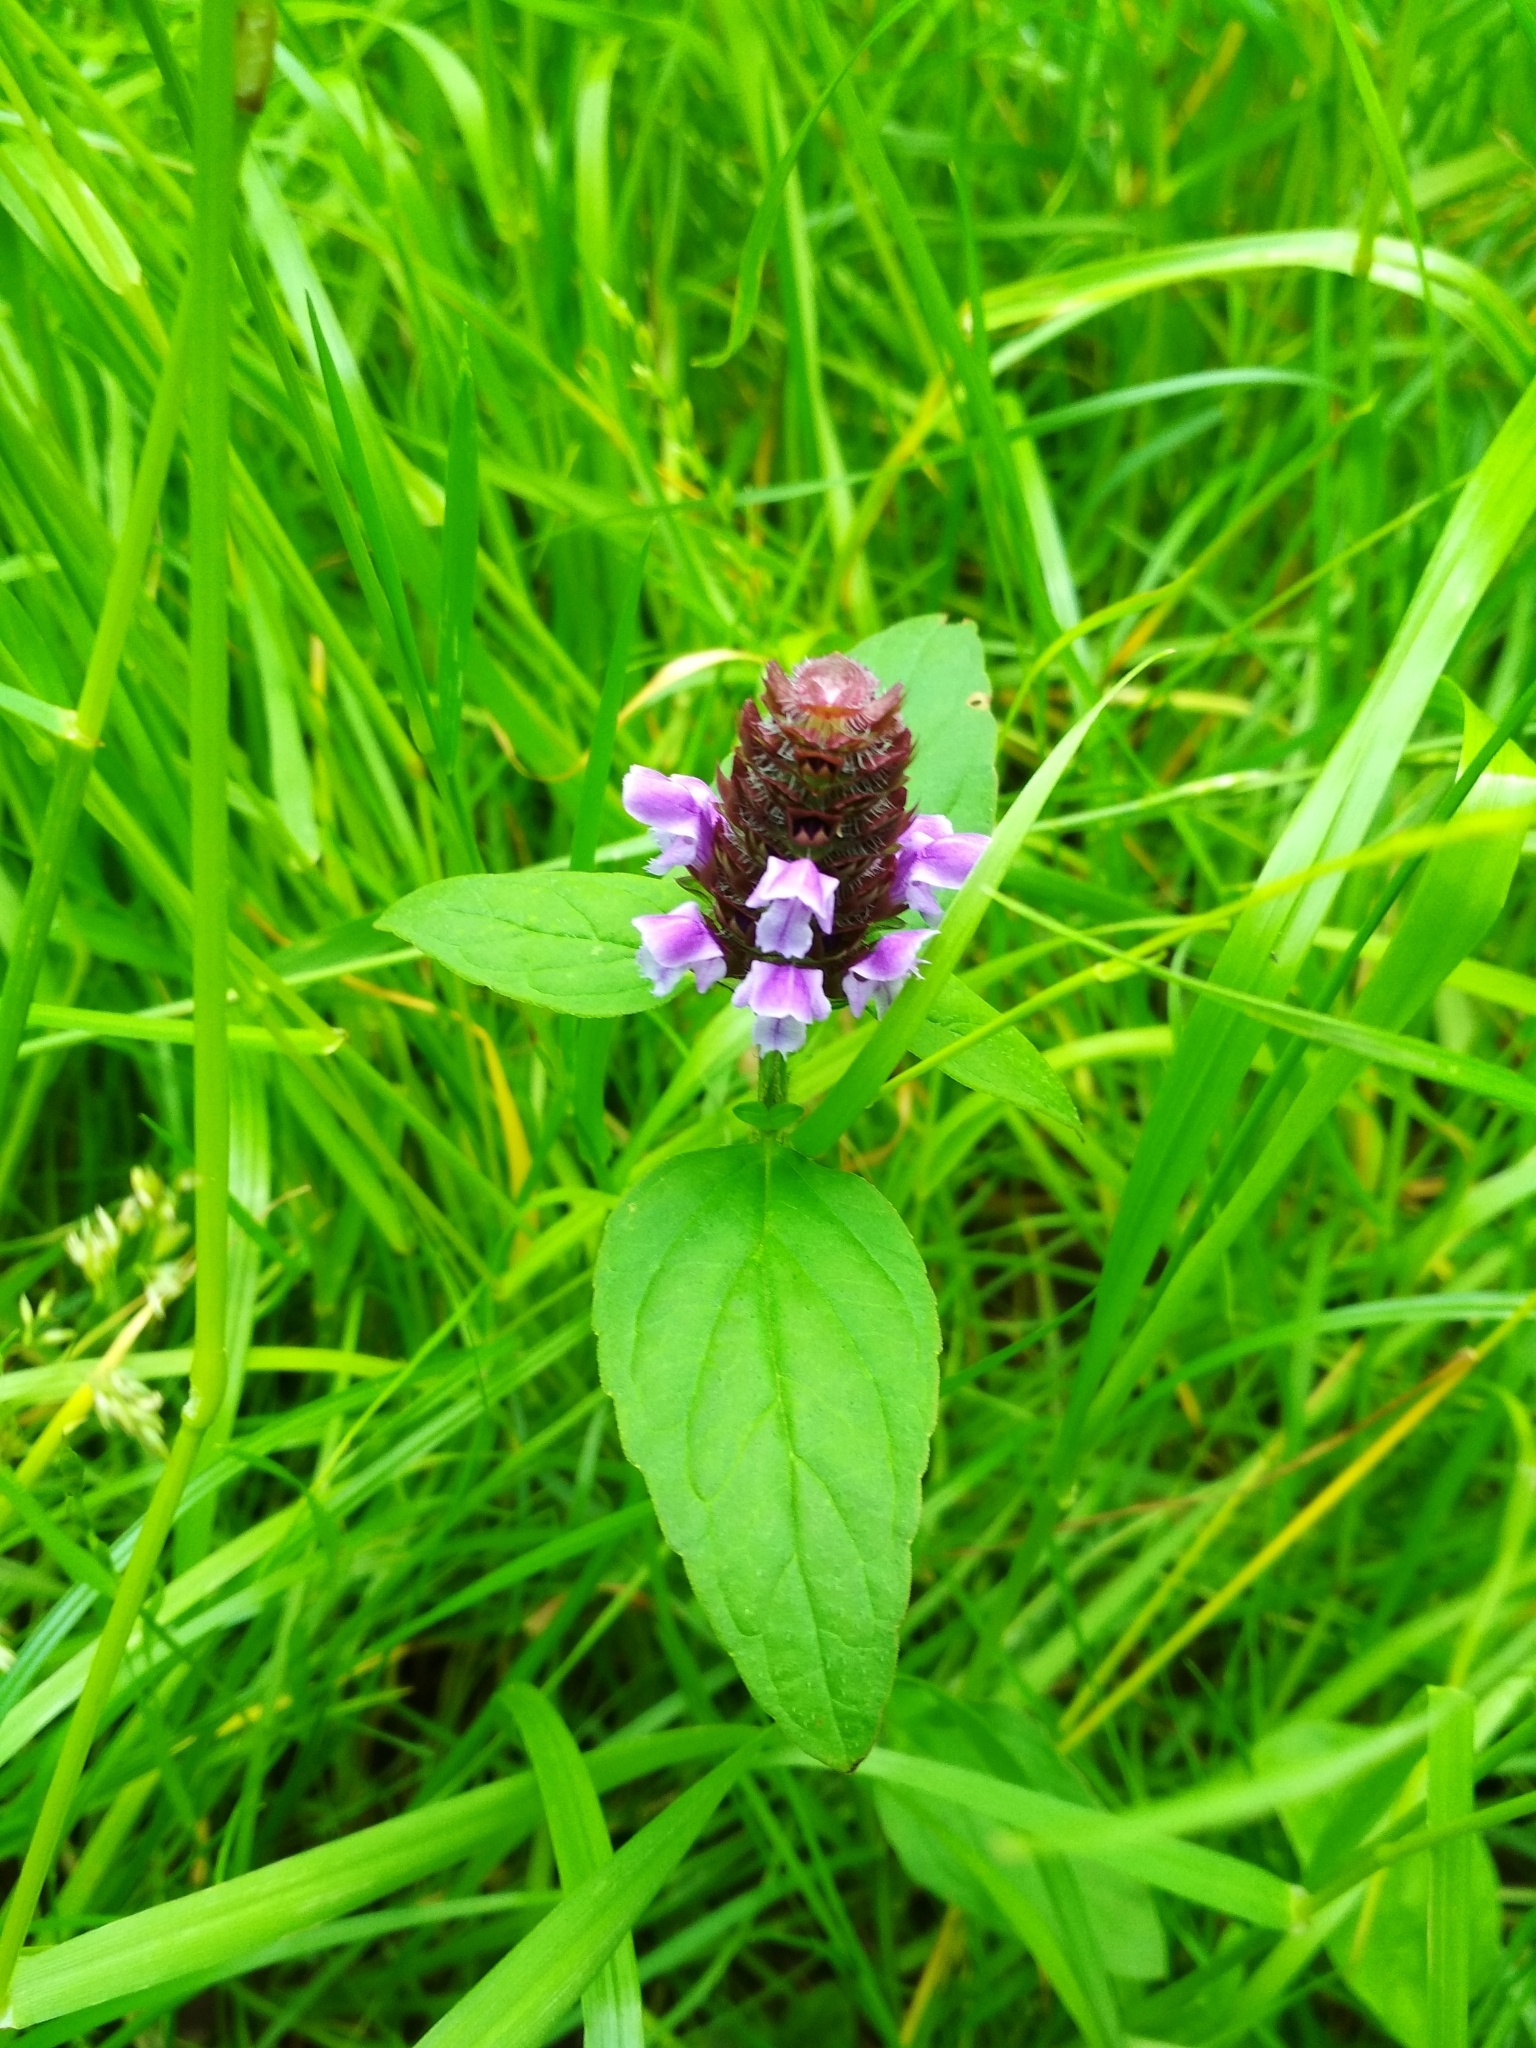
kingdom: Plantae
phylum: Tracheophyta
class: Magnoliopsida
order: Lamiales
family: Lamiaceae
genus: Prunella
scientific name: Prunella vulgaris
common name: Heal-all
